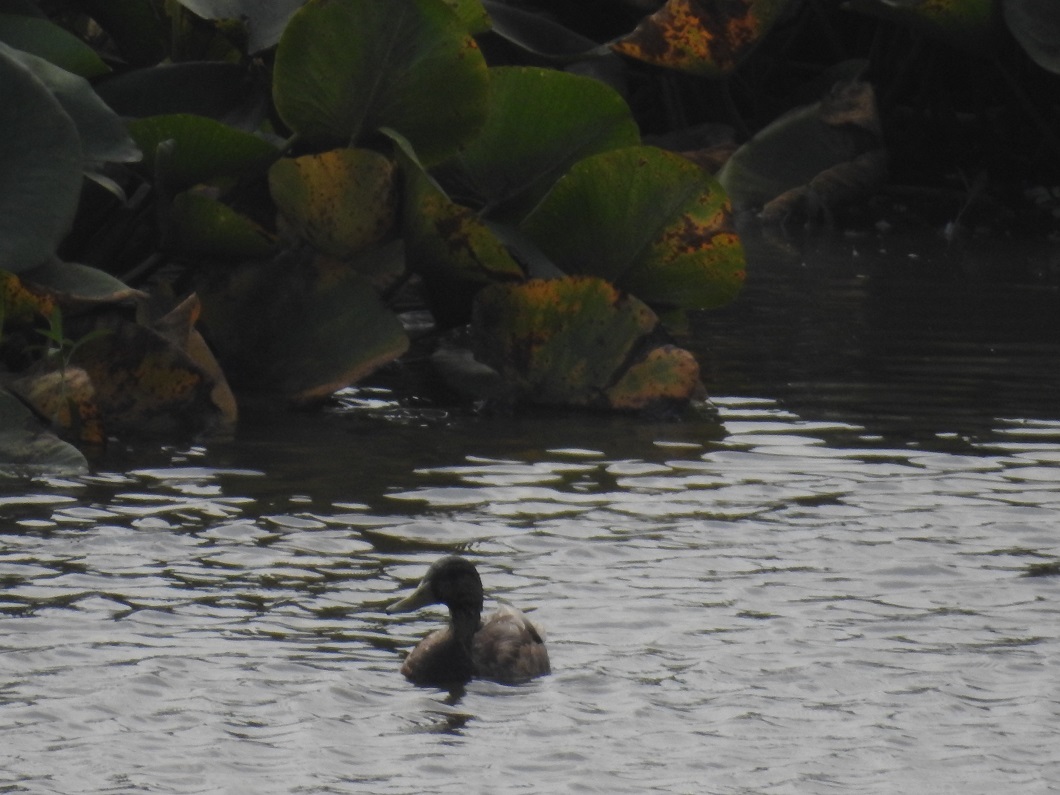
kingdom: Animalia
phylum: Chordata
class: Aves
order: Anseriformes
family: Anatidae
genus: Anas
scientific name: Anas platyrhynchos
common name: Mallard
